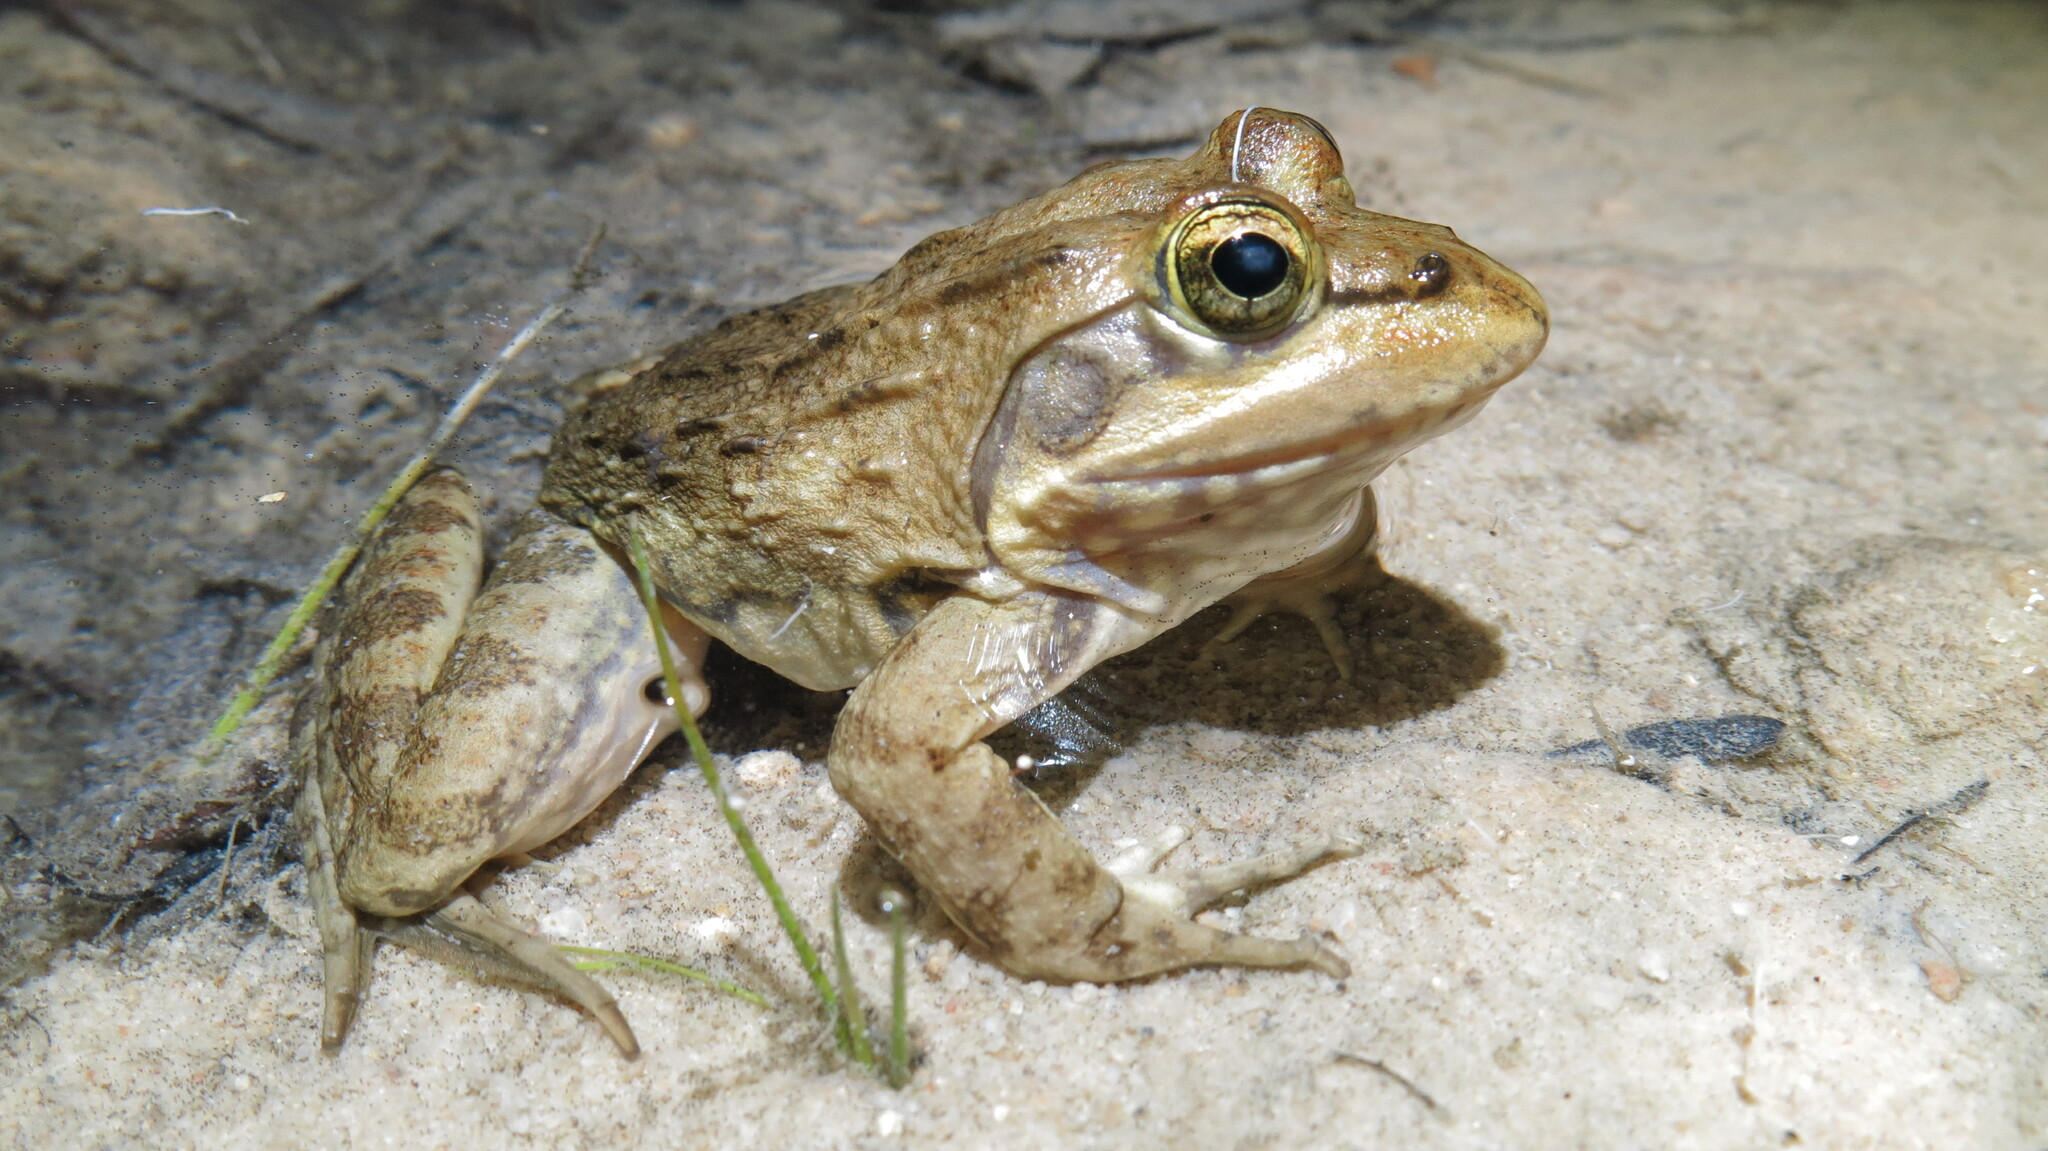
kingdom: Animalia
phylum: Chordata
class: Amphibia
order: Anura
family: Pyxicephalidae
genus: Amietia
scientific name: Amietia fuscigula
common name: Cape rana
